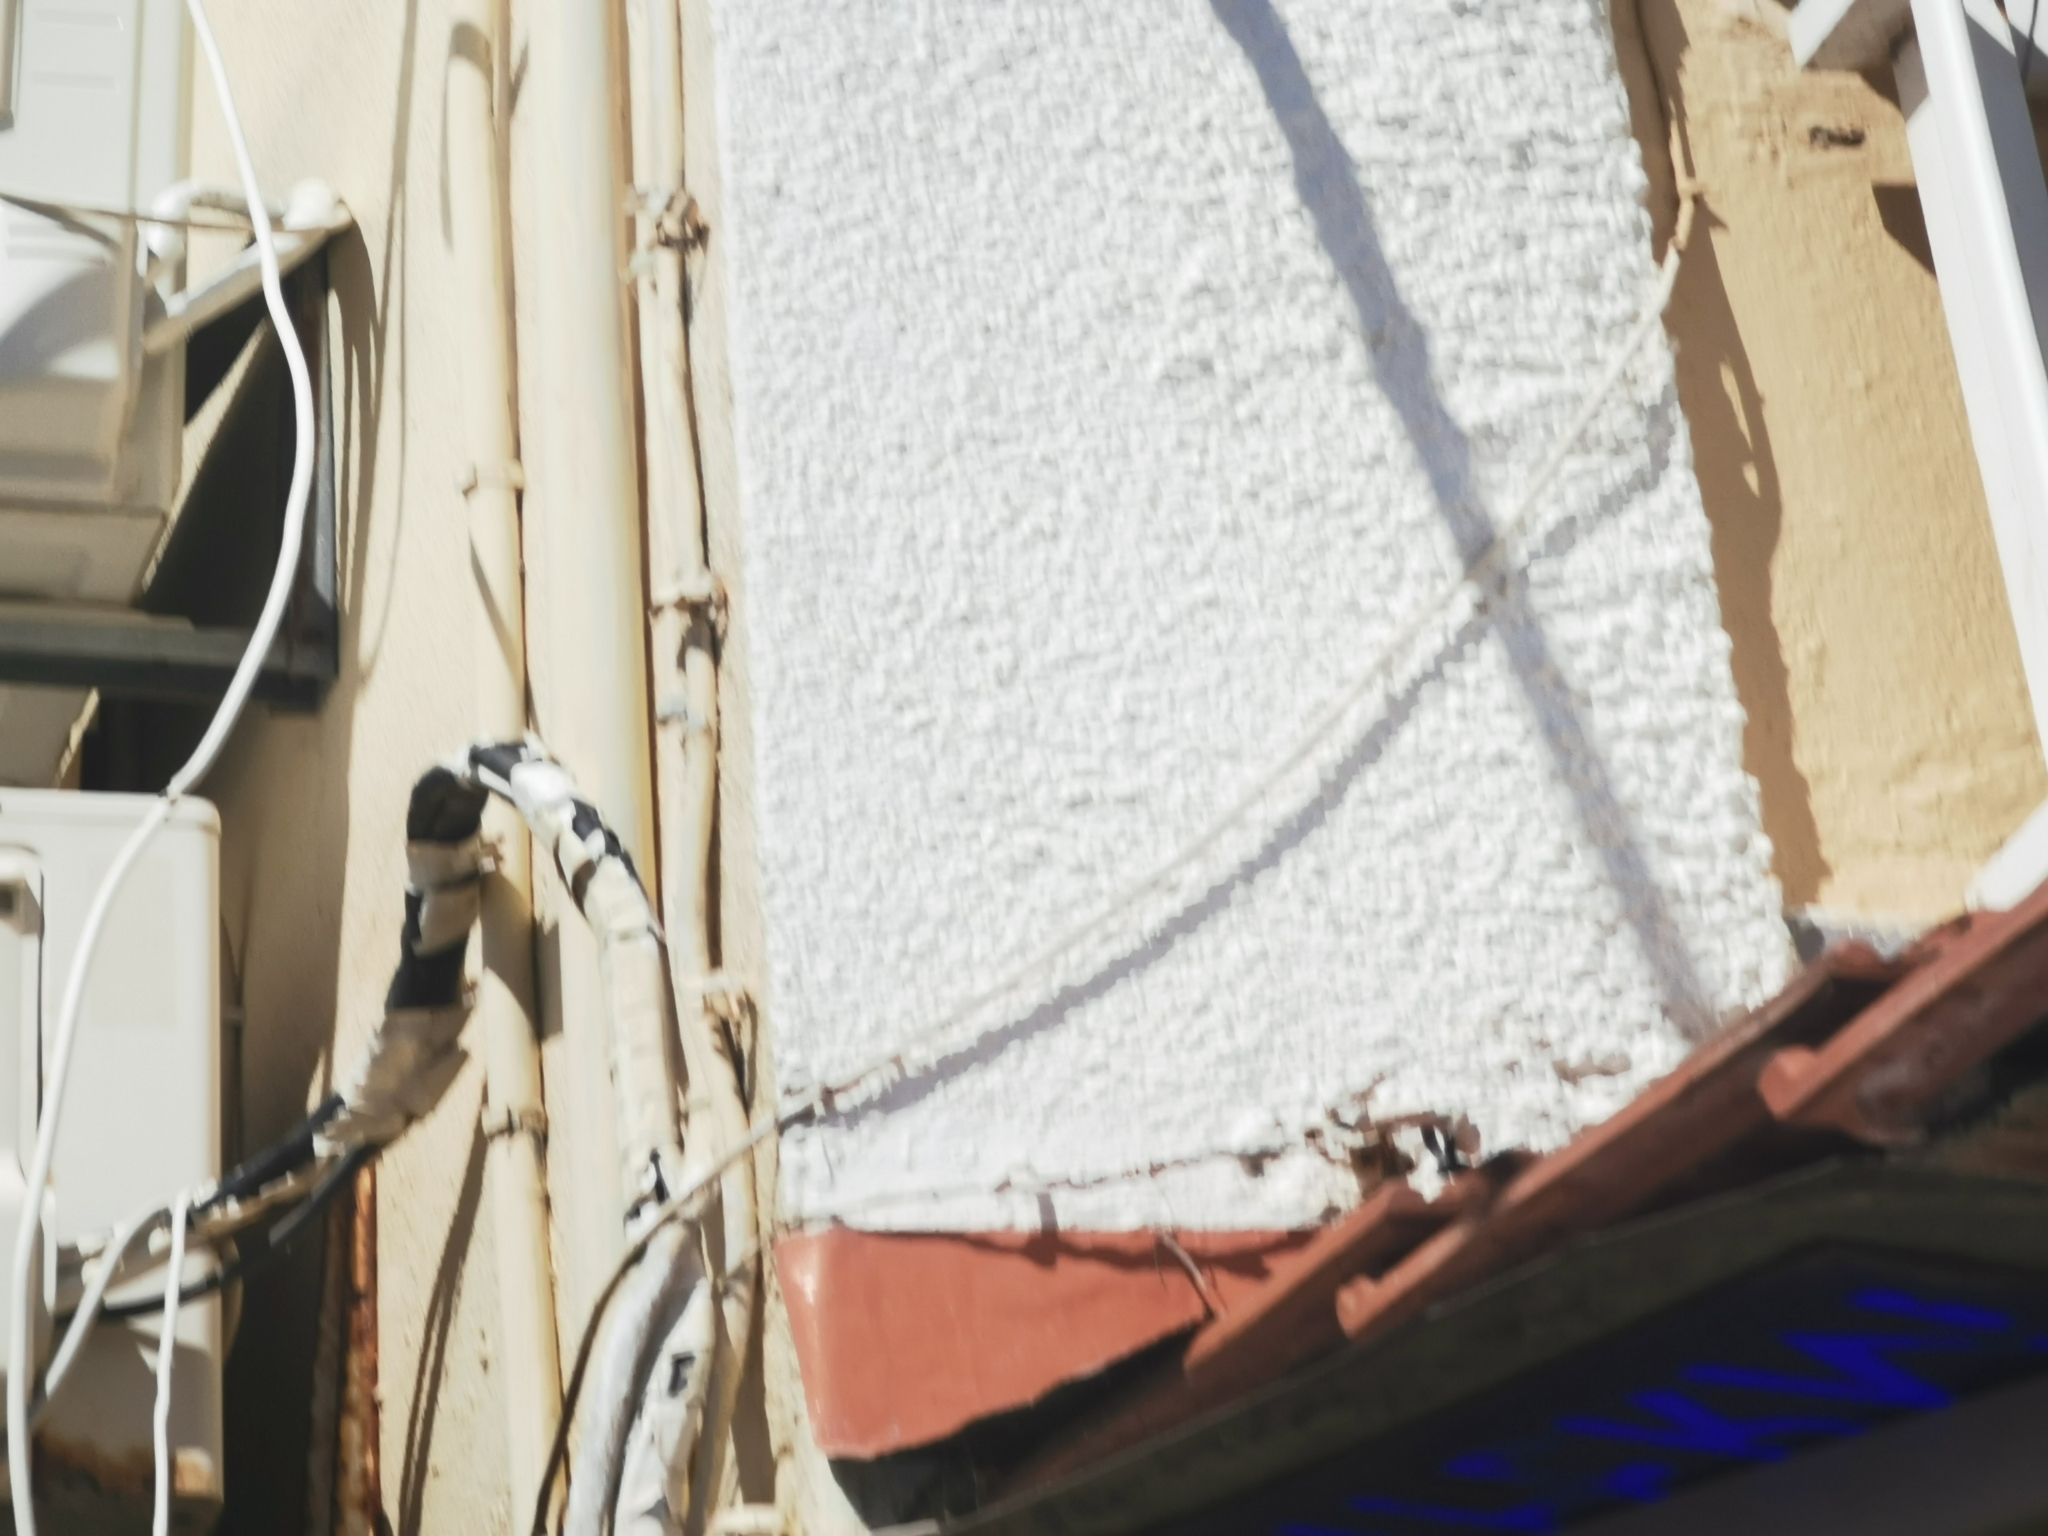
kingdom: Animalia
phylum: Chordata
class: Aves
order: Passeriformes
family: Hirundinidae
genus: Delichon
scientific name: Delichon urbicum
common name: Common house martin
